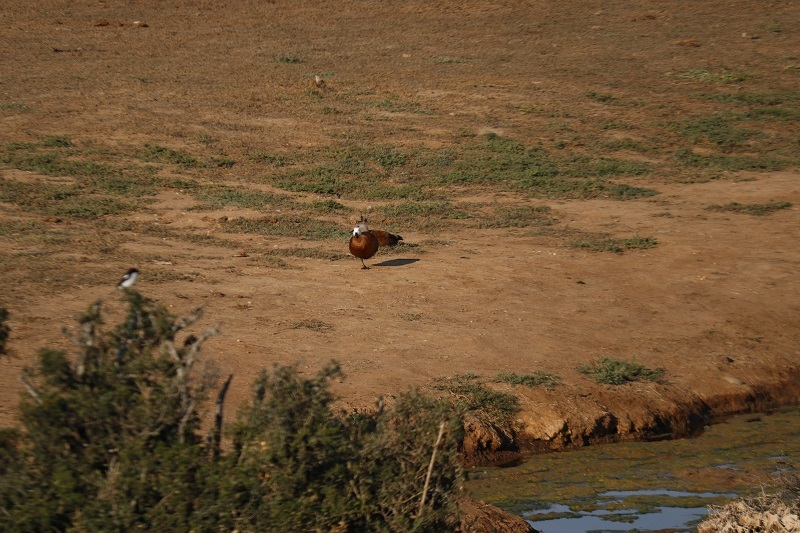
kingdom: Animalia
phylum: Chordata
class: Aves
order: Anseriformes
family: Anatidae
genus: Tadorna
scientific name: Tadorna cana
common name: South african shelduck
